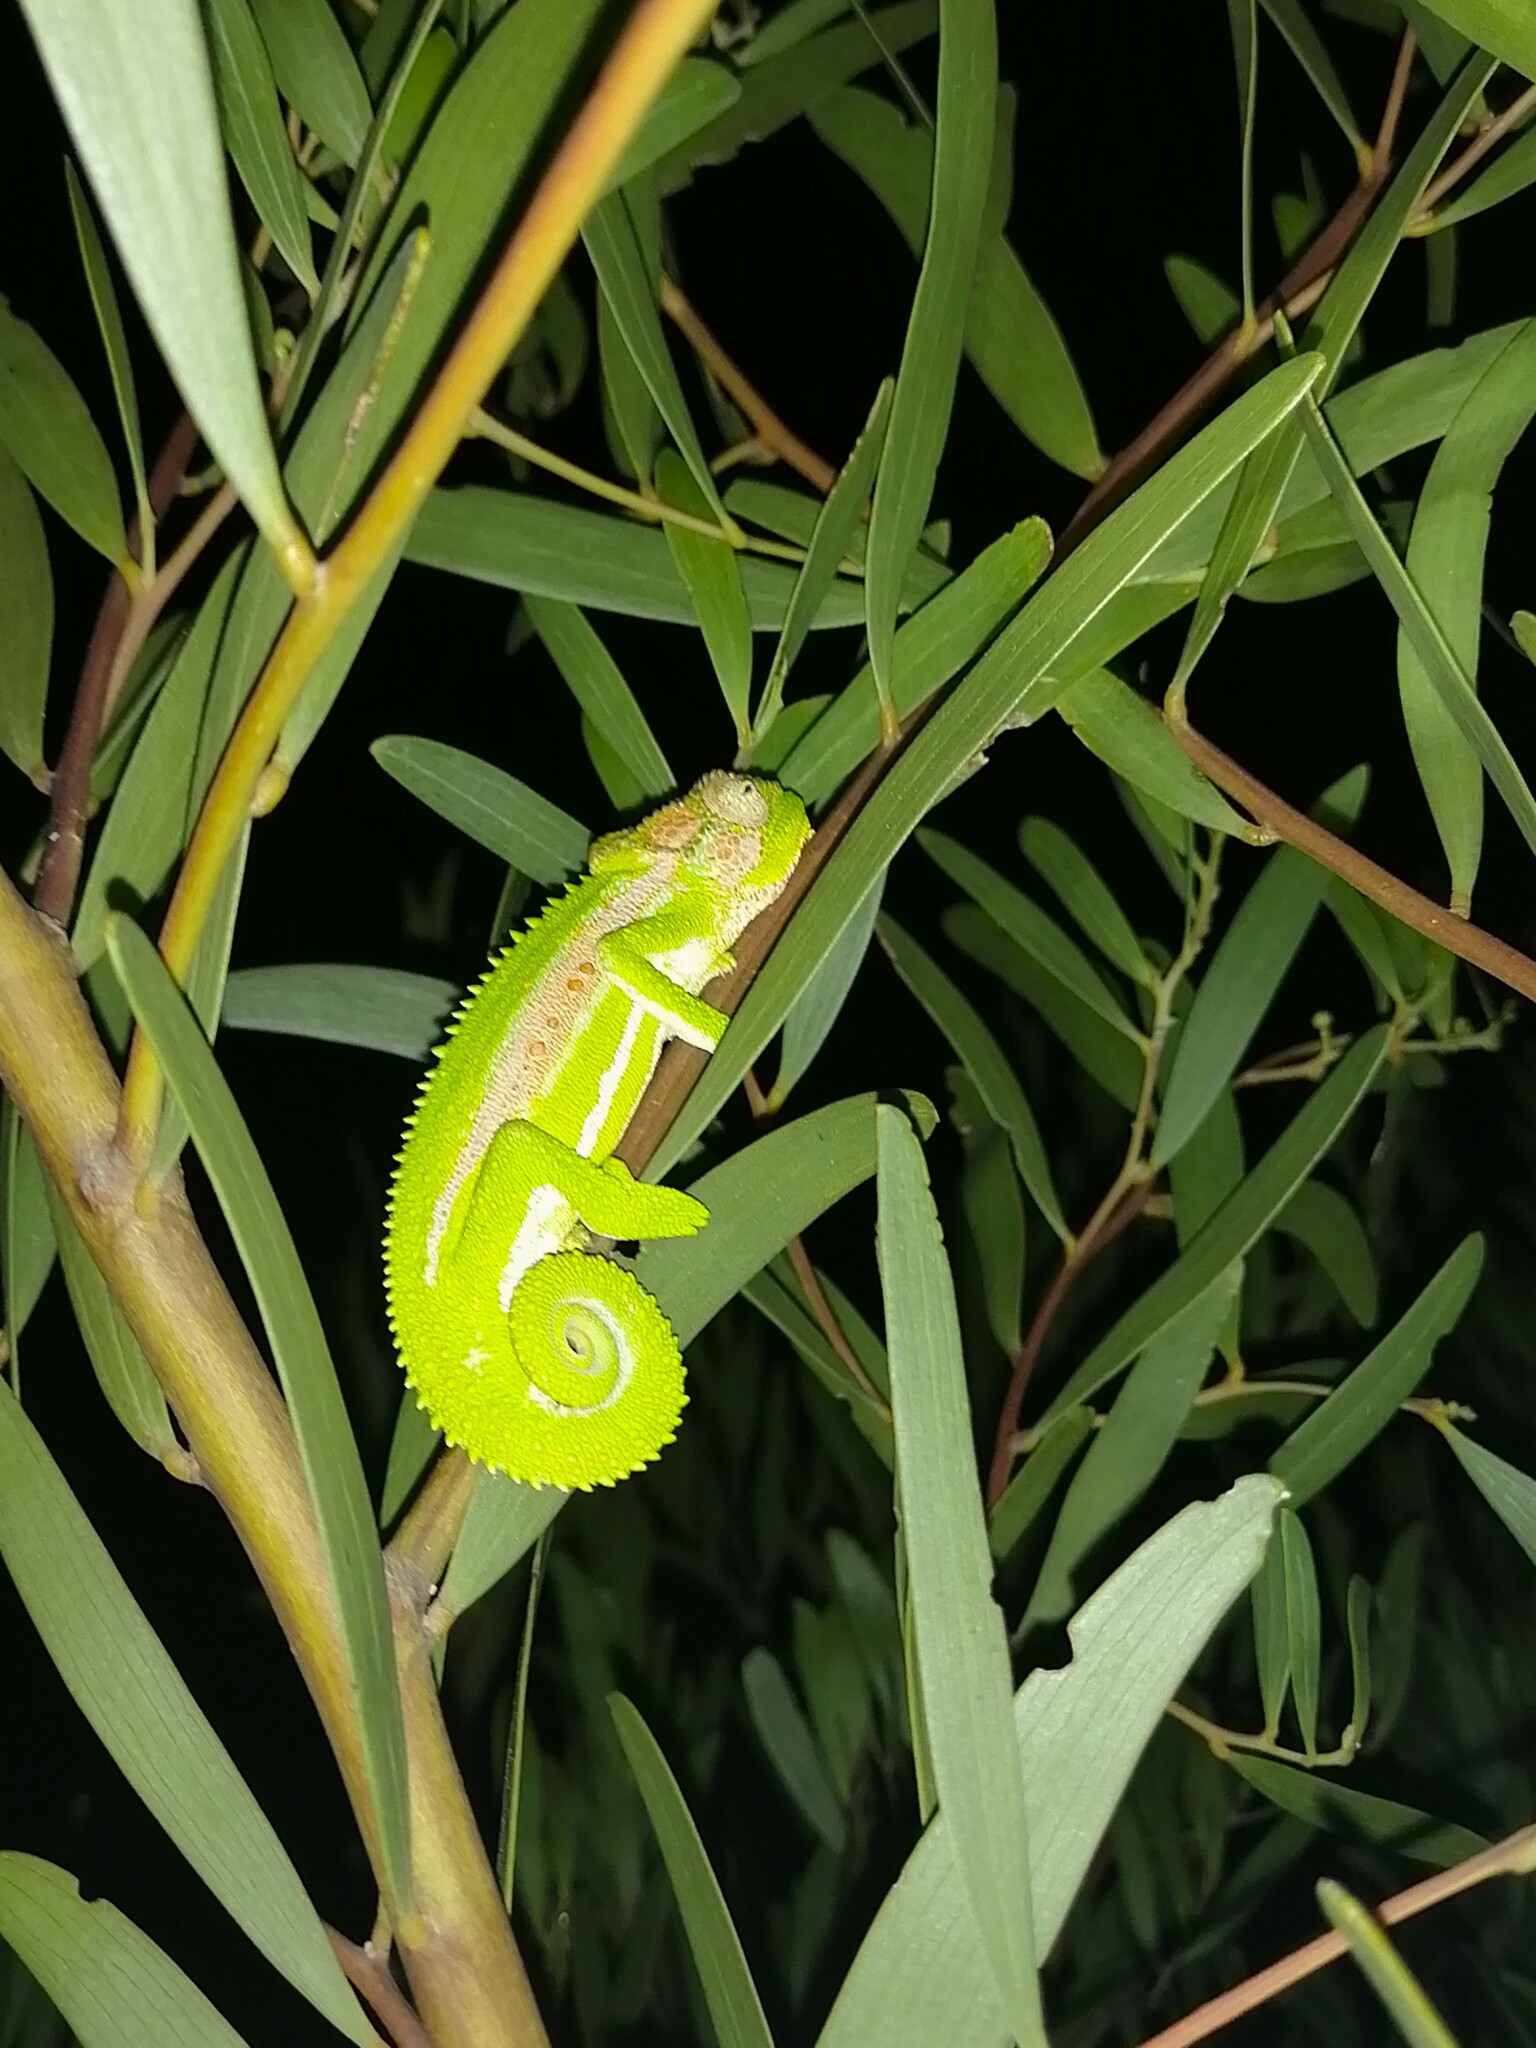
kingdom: Animalia
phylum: Chordata
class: Squamata
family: Chamaeleonidae
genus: Bradypodion
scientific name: Bradypodion pumilum
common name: Cape dwarf chameleon
